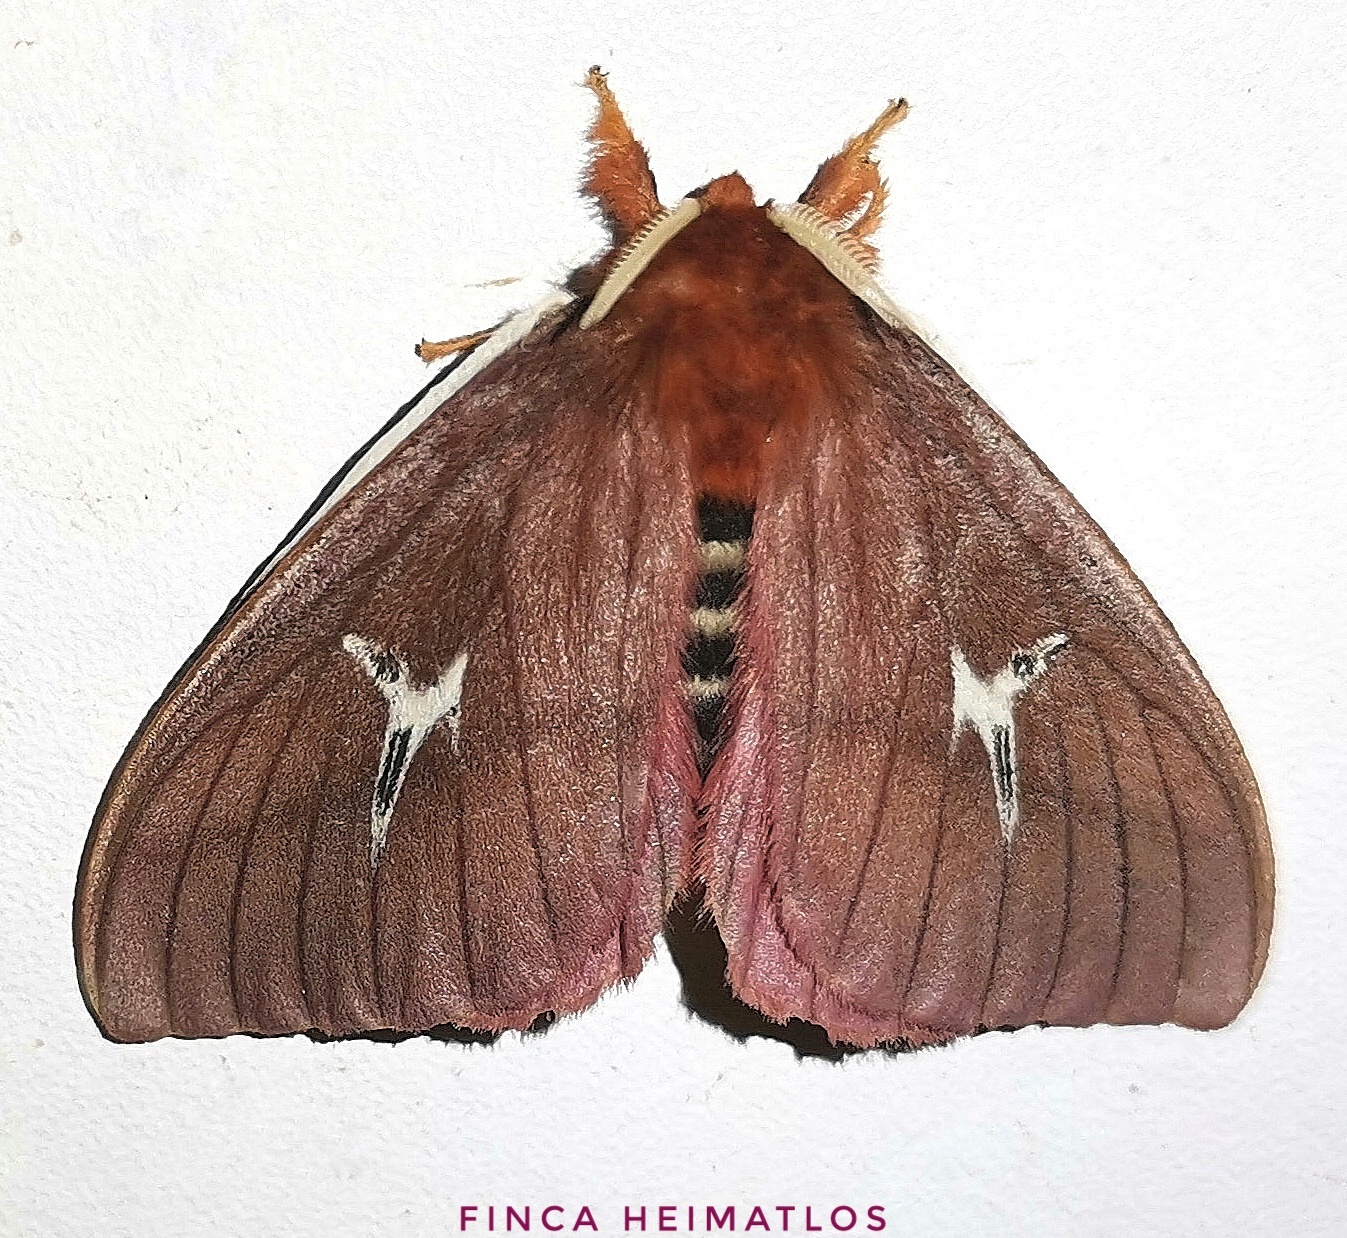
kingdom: Animalia
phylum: Arthropoda
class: Insecta
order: Lepidoptera
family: Saturniidae
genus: Cerodirphia
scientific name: Cerodirphia speciosa
